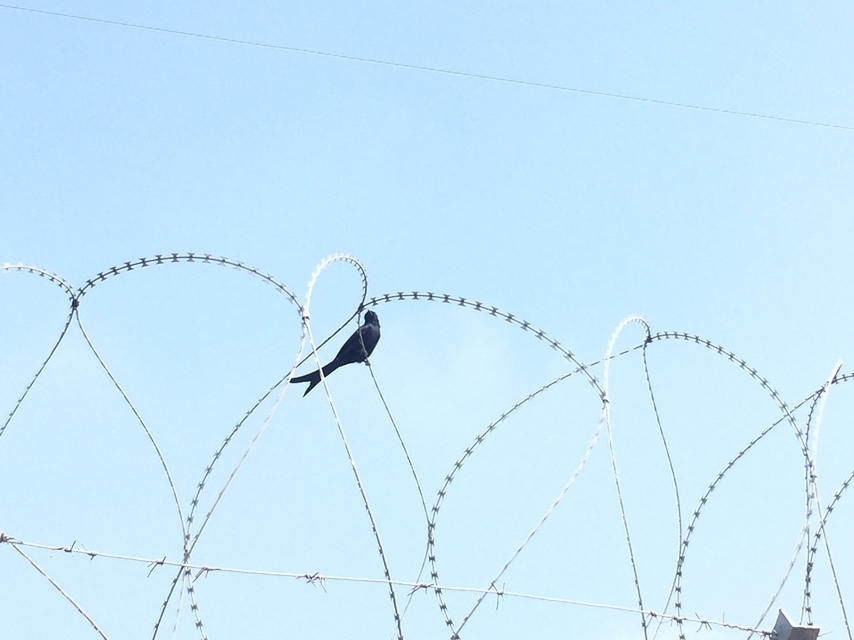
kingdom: Animalia
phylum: Chordata
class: Aves
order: Passeriformes
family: Dicruridae
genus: Dicrurus
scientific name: Dicrurus macrocercus
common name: Black drongo
